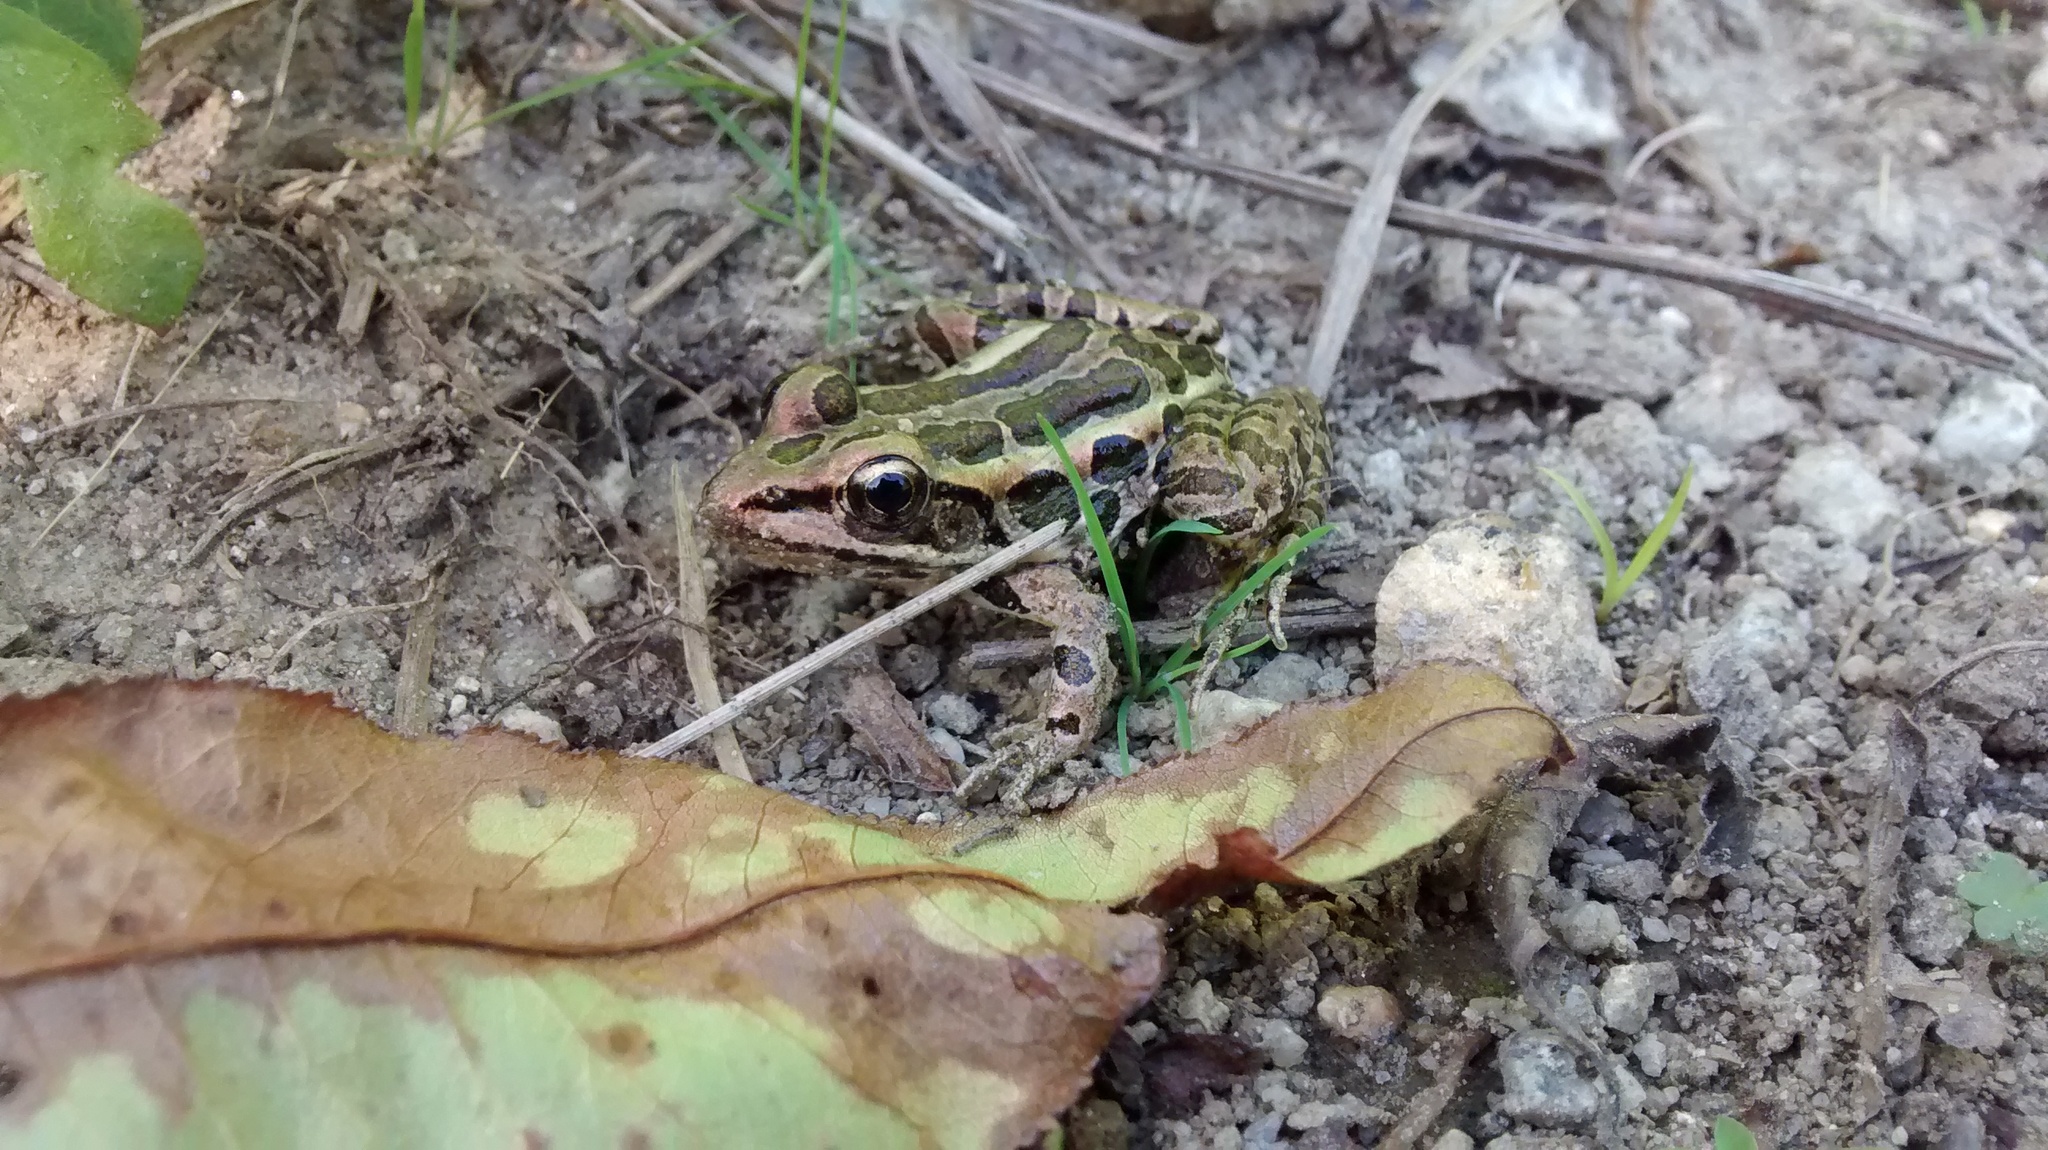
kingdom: Animalia
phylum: Chordata
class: Amphibia
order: Anura
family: Ranidae
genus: Lithobates
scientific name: Lithobates palustris
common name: Pickerel frog
